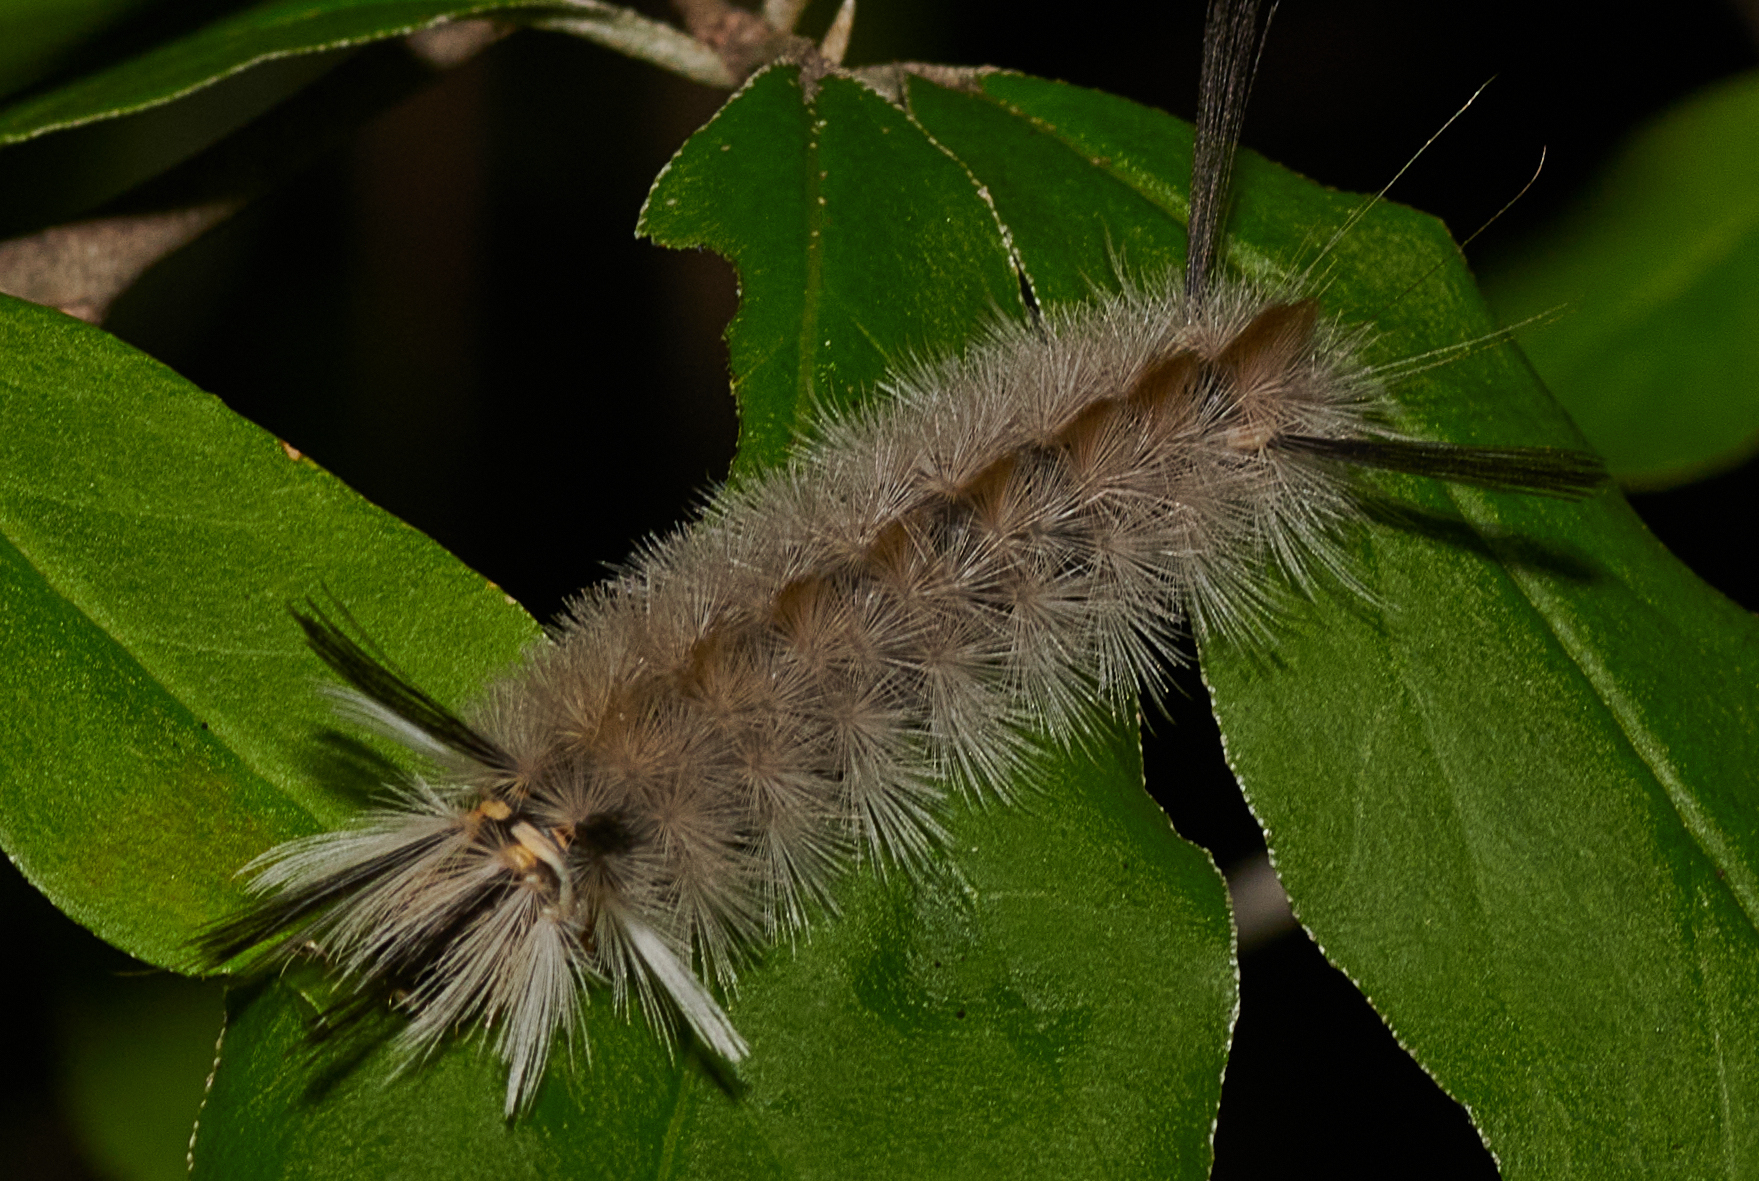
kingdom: Animalia
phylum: Arthropoda
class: Insecta
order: Lepidoptera
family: Erebidae
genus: Halysidota
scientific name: Halysidota tessellaris
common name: Banded tussock moth
